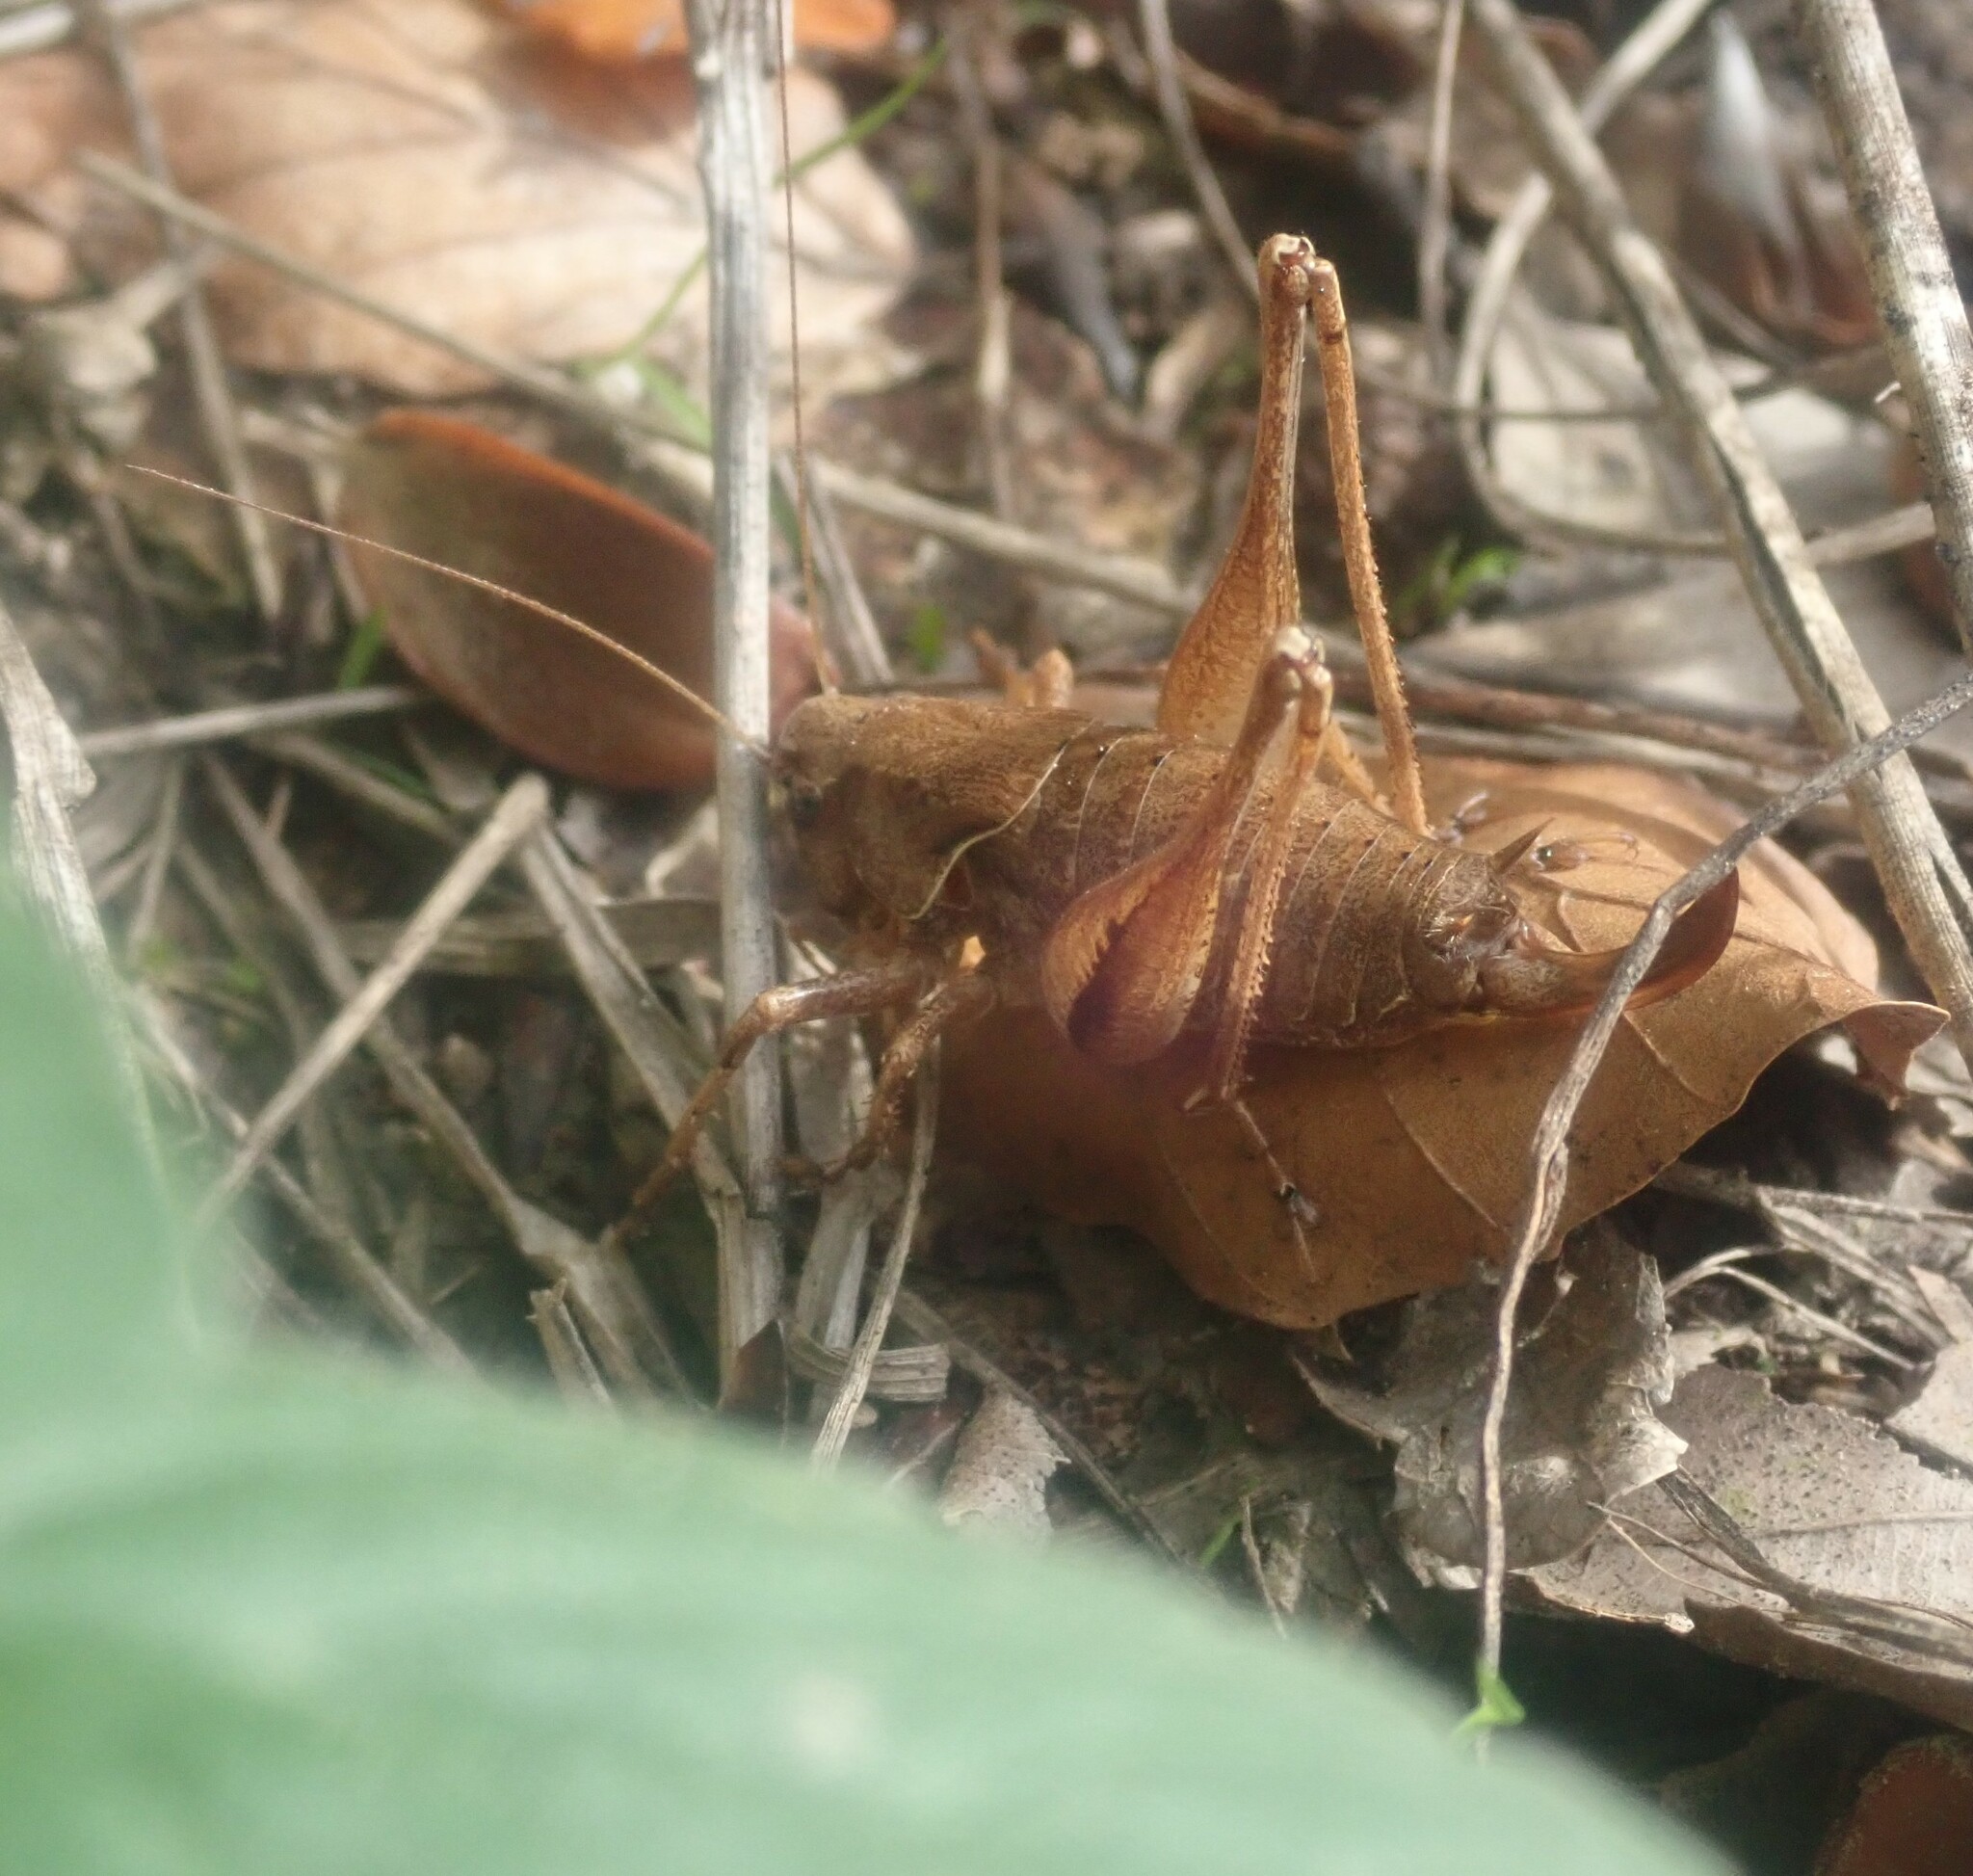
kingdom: Animalia
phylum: Arthropoda
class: Insecta
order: Orthoptera
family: Tettigoniidae
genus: Pholidoptera
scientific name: Pholidoptera griseoaptera
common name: Dark bush-cricket
